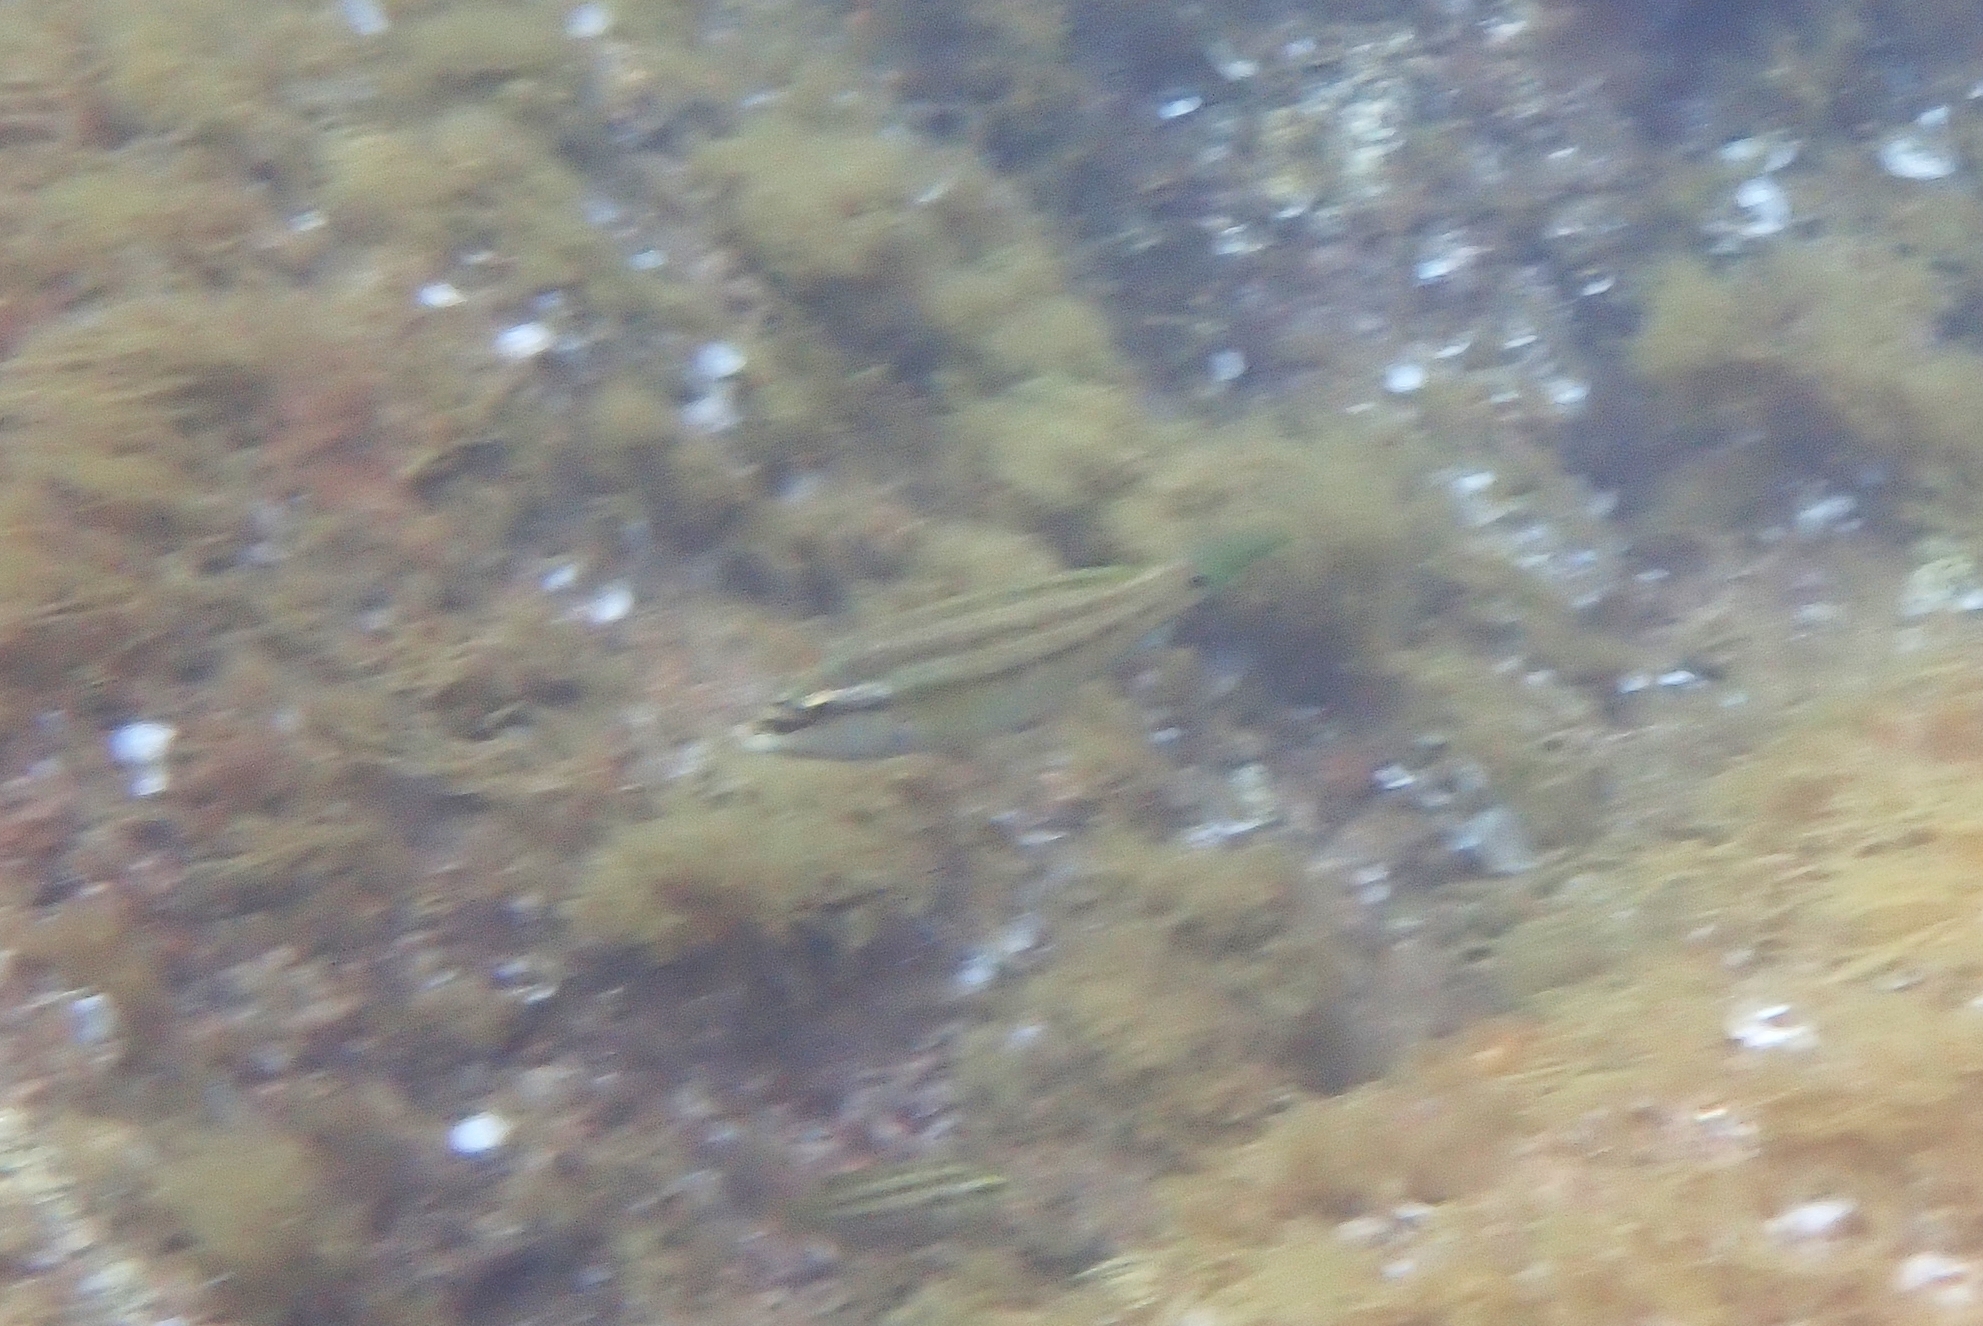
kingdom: Animalia
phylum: Chordata
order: Perciformes
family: Labridae
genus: Symphodus
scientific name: Symphodus tinca
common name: Peacock wrasse
